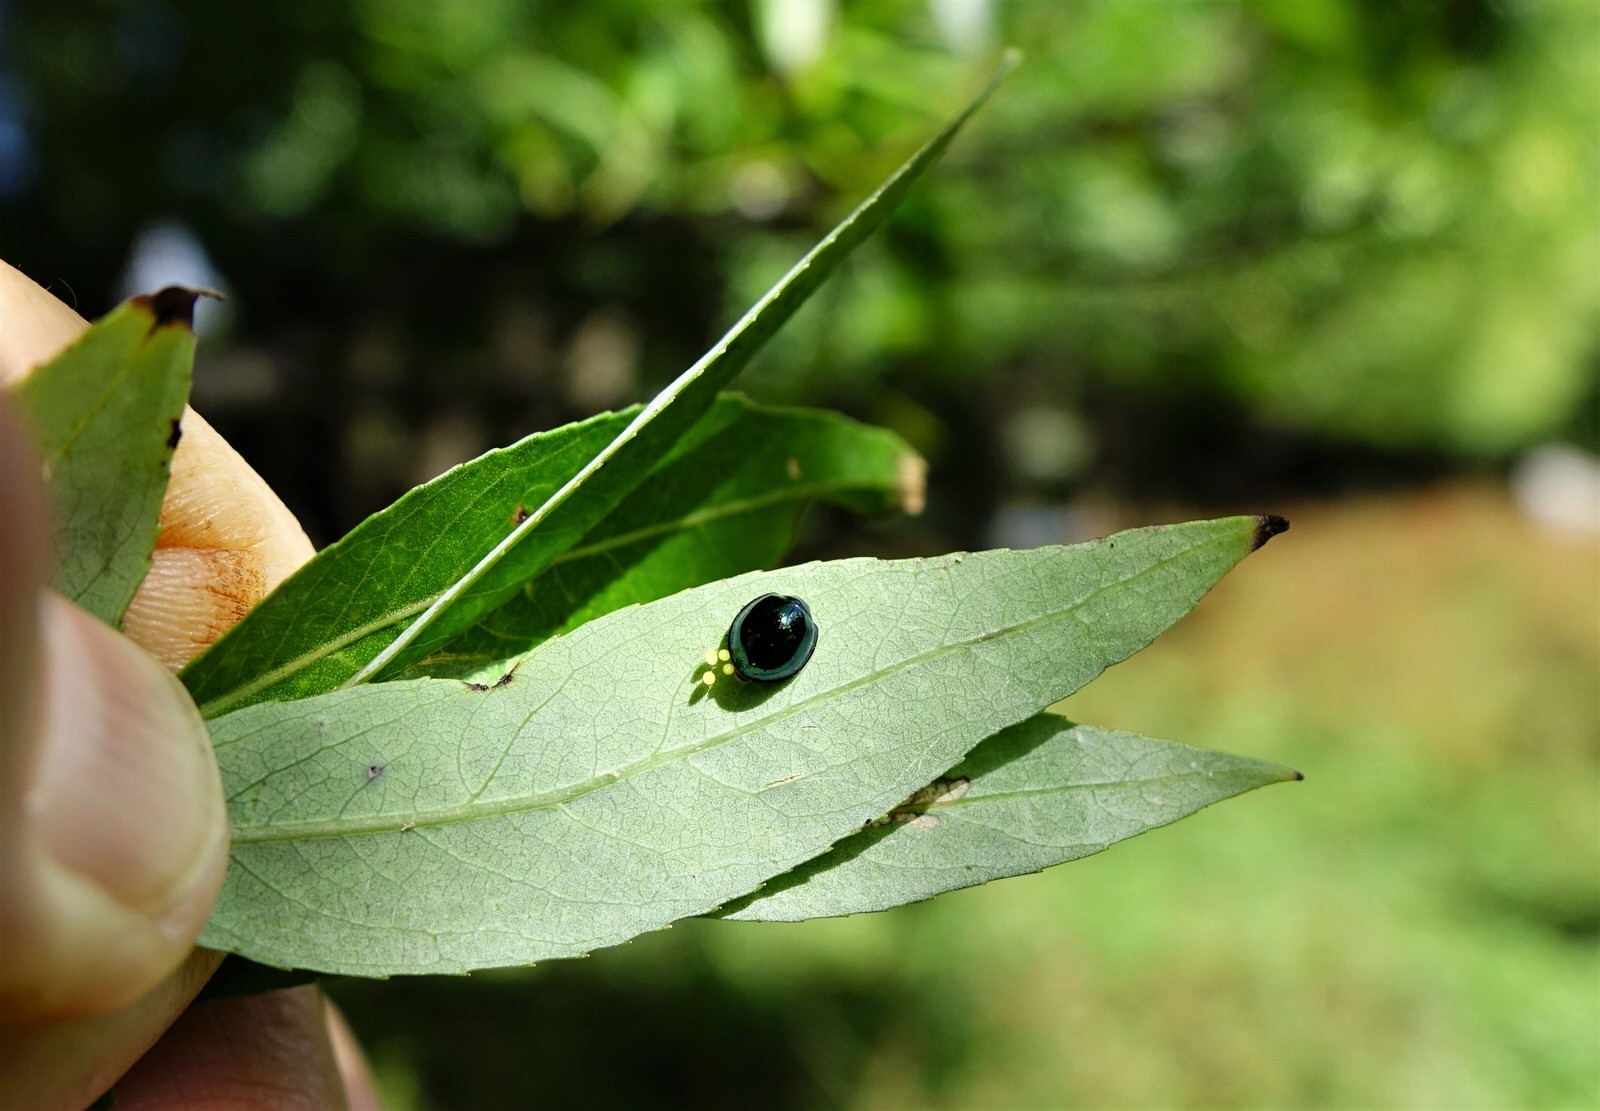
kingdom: Animalia
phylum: Arthropoda
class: Insecta
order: Coleoptera
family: Coccinellidae
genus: Halmus
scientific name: Halmus chalybeus
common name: Steel blue ladybird beetle
